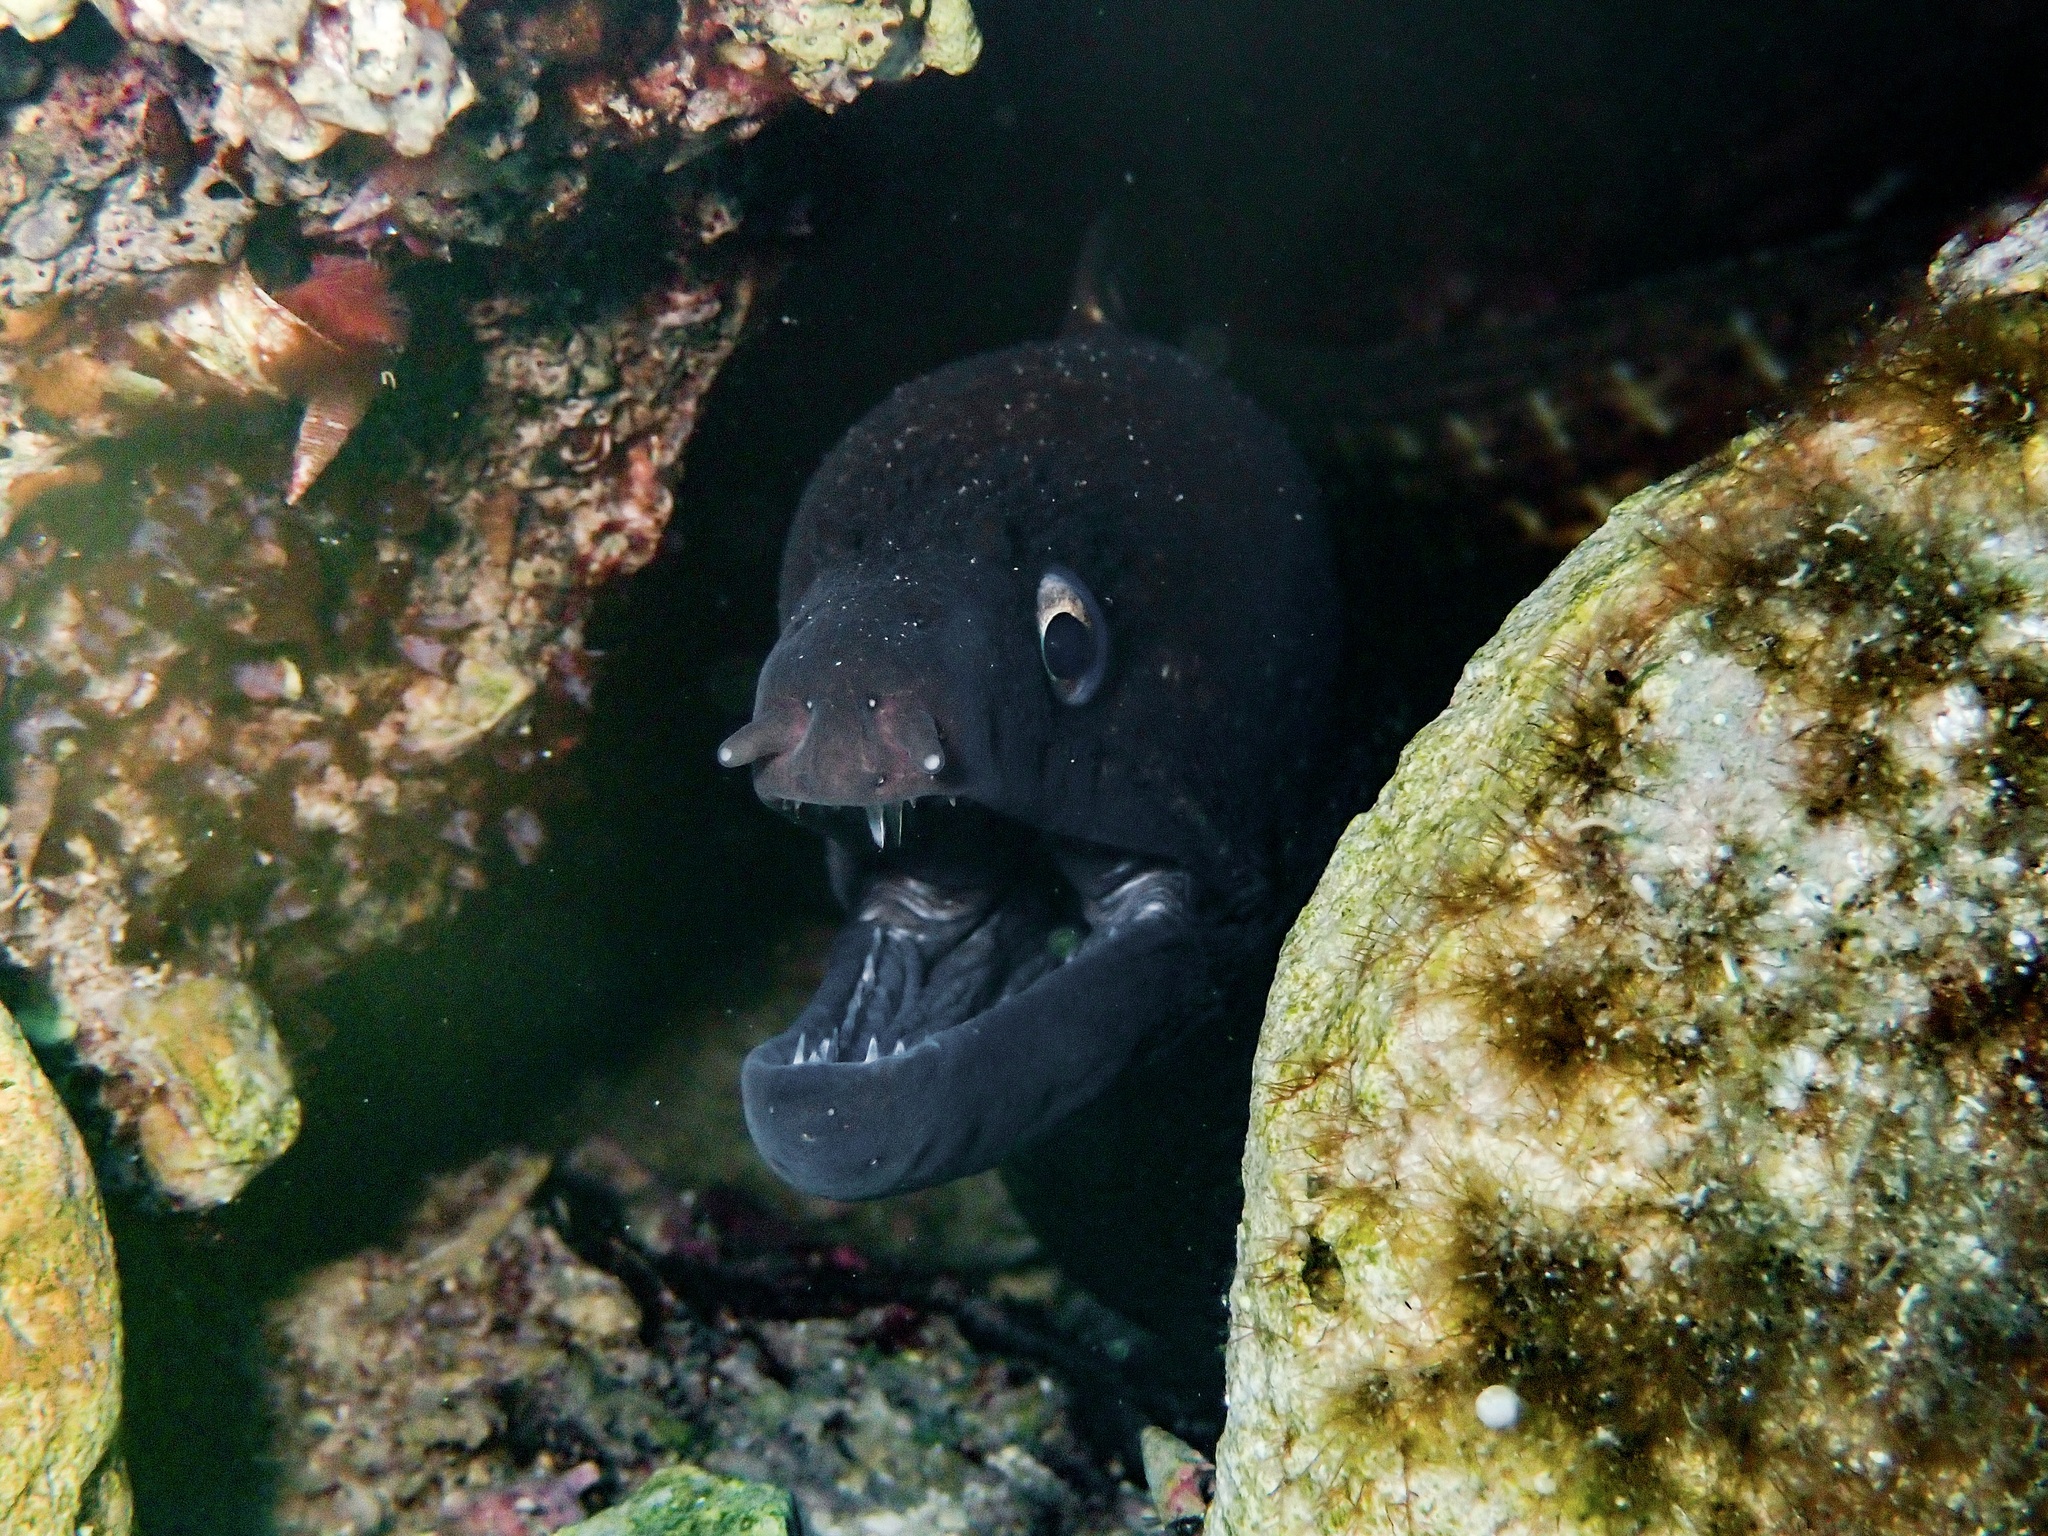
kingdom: Animalia
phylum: Chordata
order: Anguilliformes
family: Muraenidae
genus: Muraena
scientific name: Muraena helena
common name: Mediterranean moray
